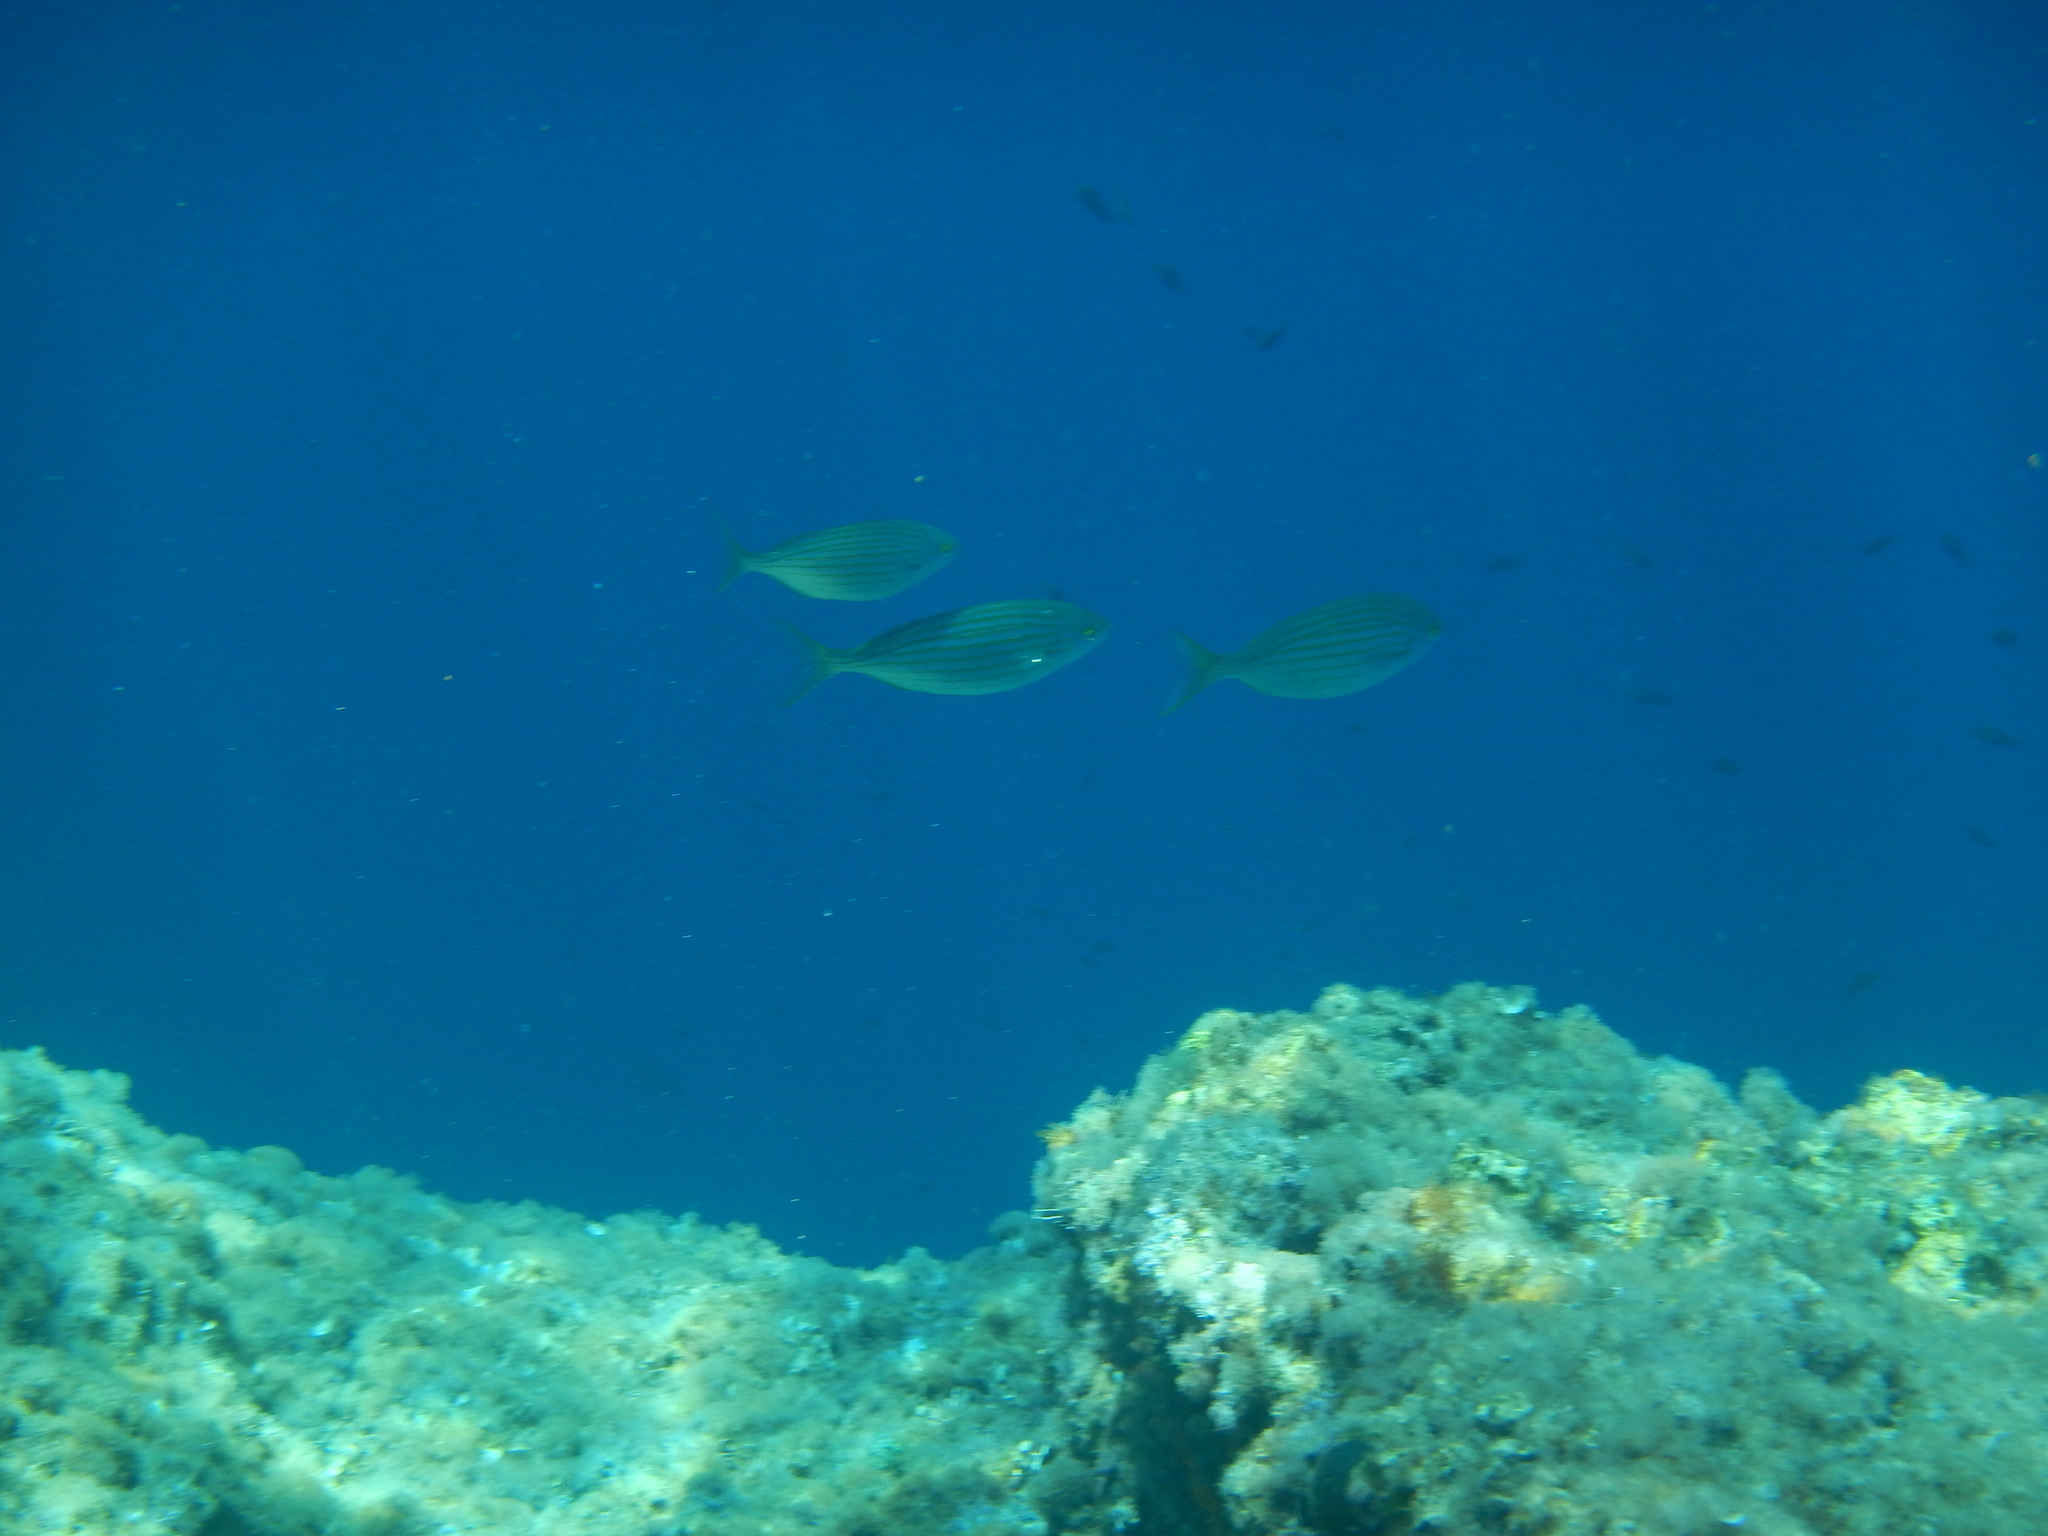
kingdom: Animalia
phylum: Chordata
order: Perciformes
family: Sparidae
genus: Sarpa
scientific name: Sarpa salpa
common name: Salema
